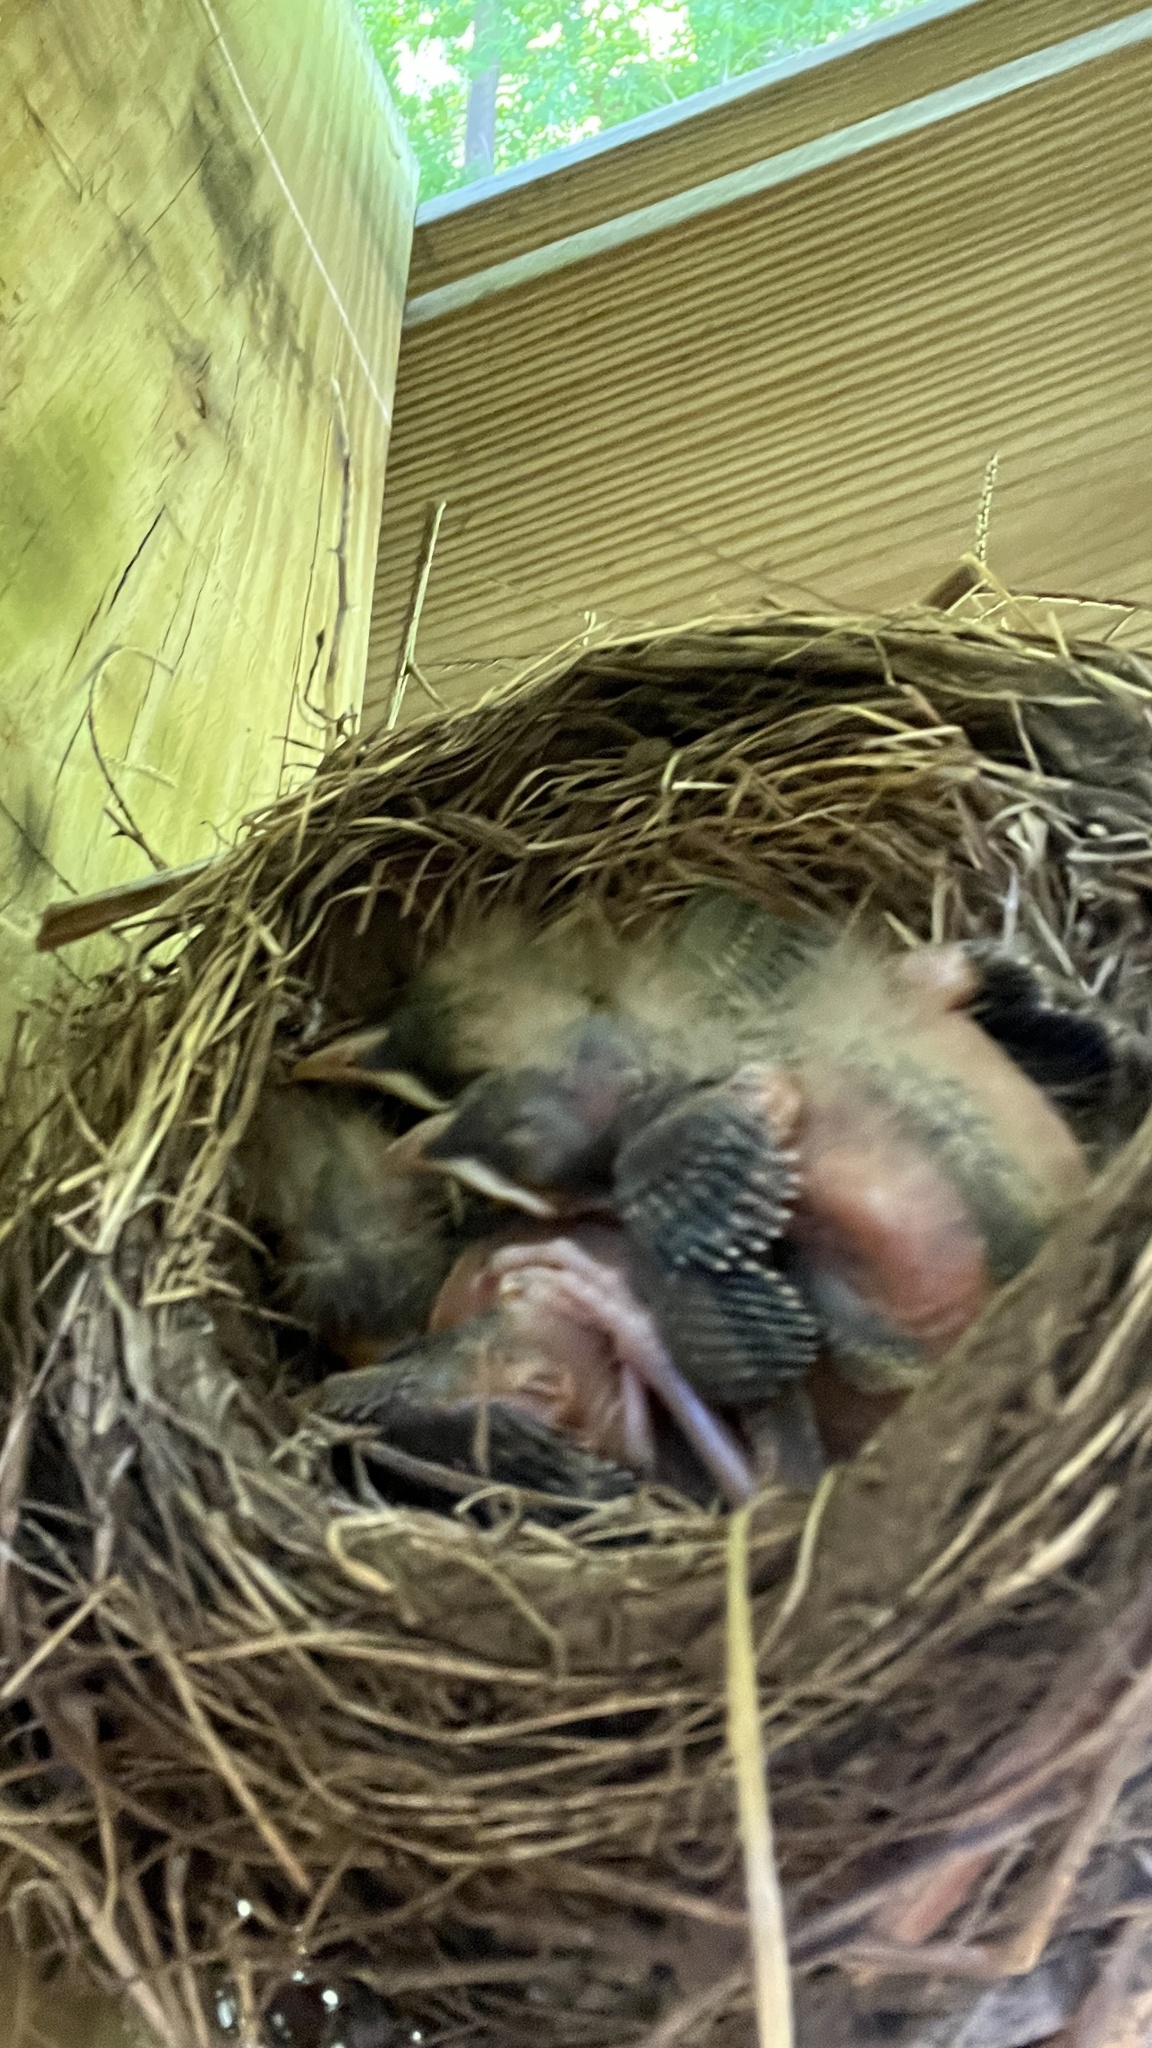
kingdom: Animalia
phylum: Chordata
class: Aves
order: Passeriformes
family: Turdidae
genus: Turdus
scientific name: Turdus migratorius
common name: American robin
